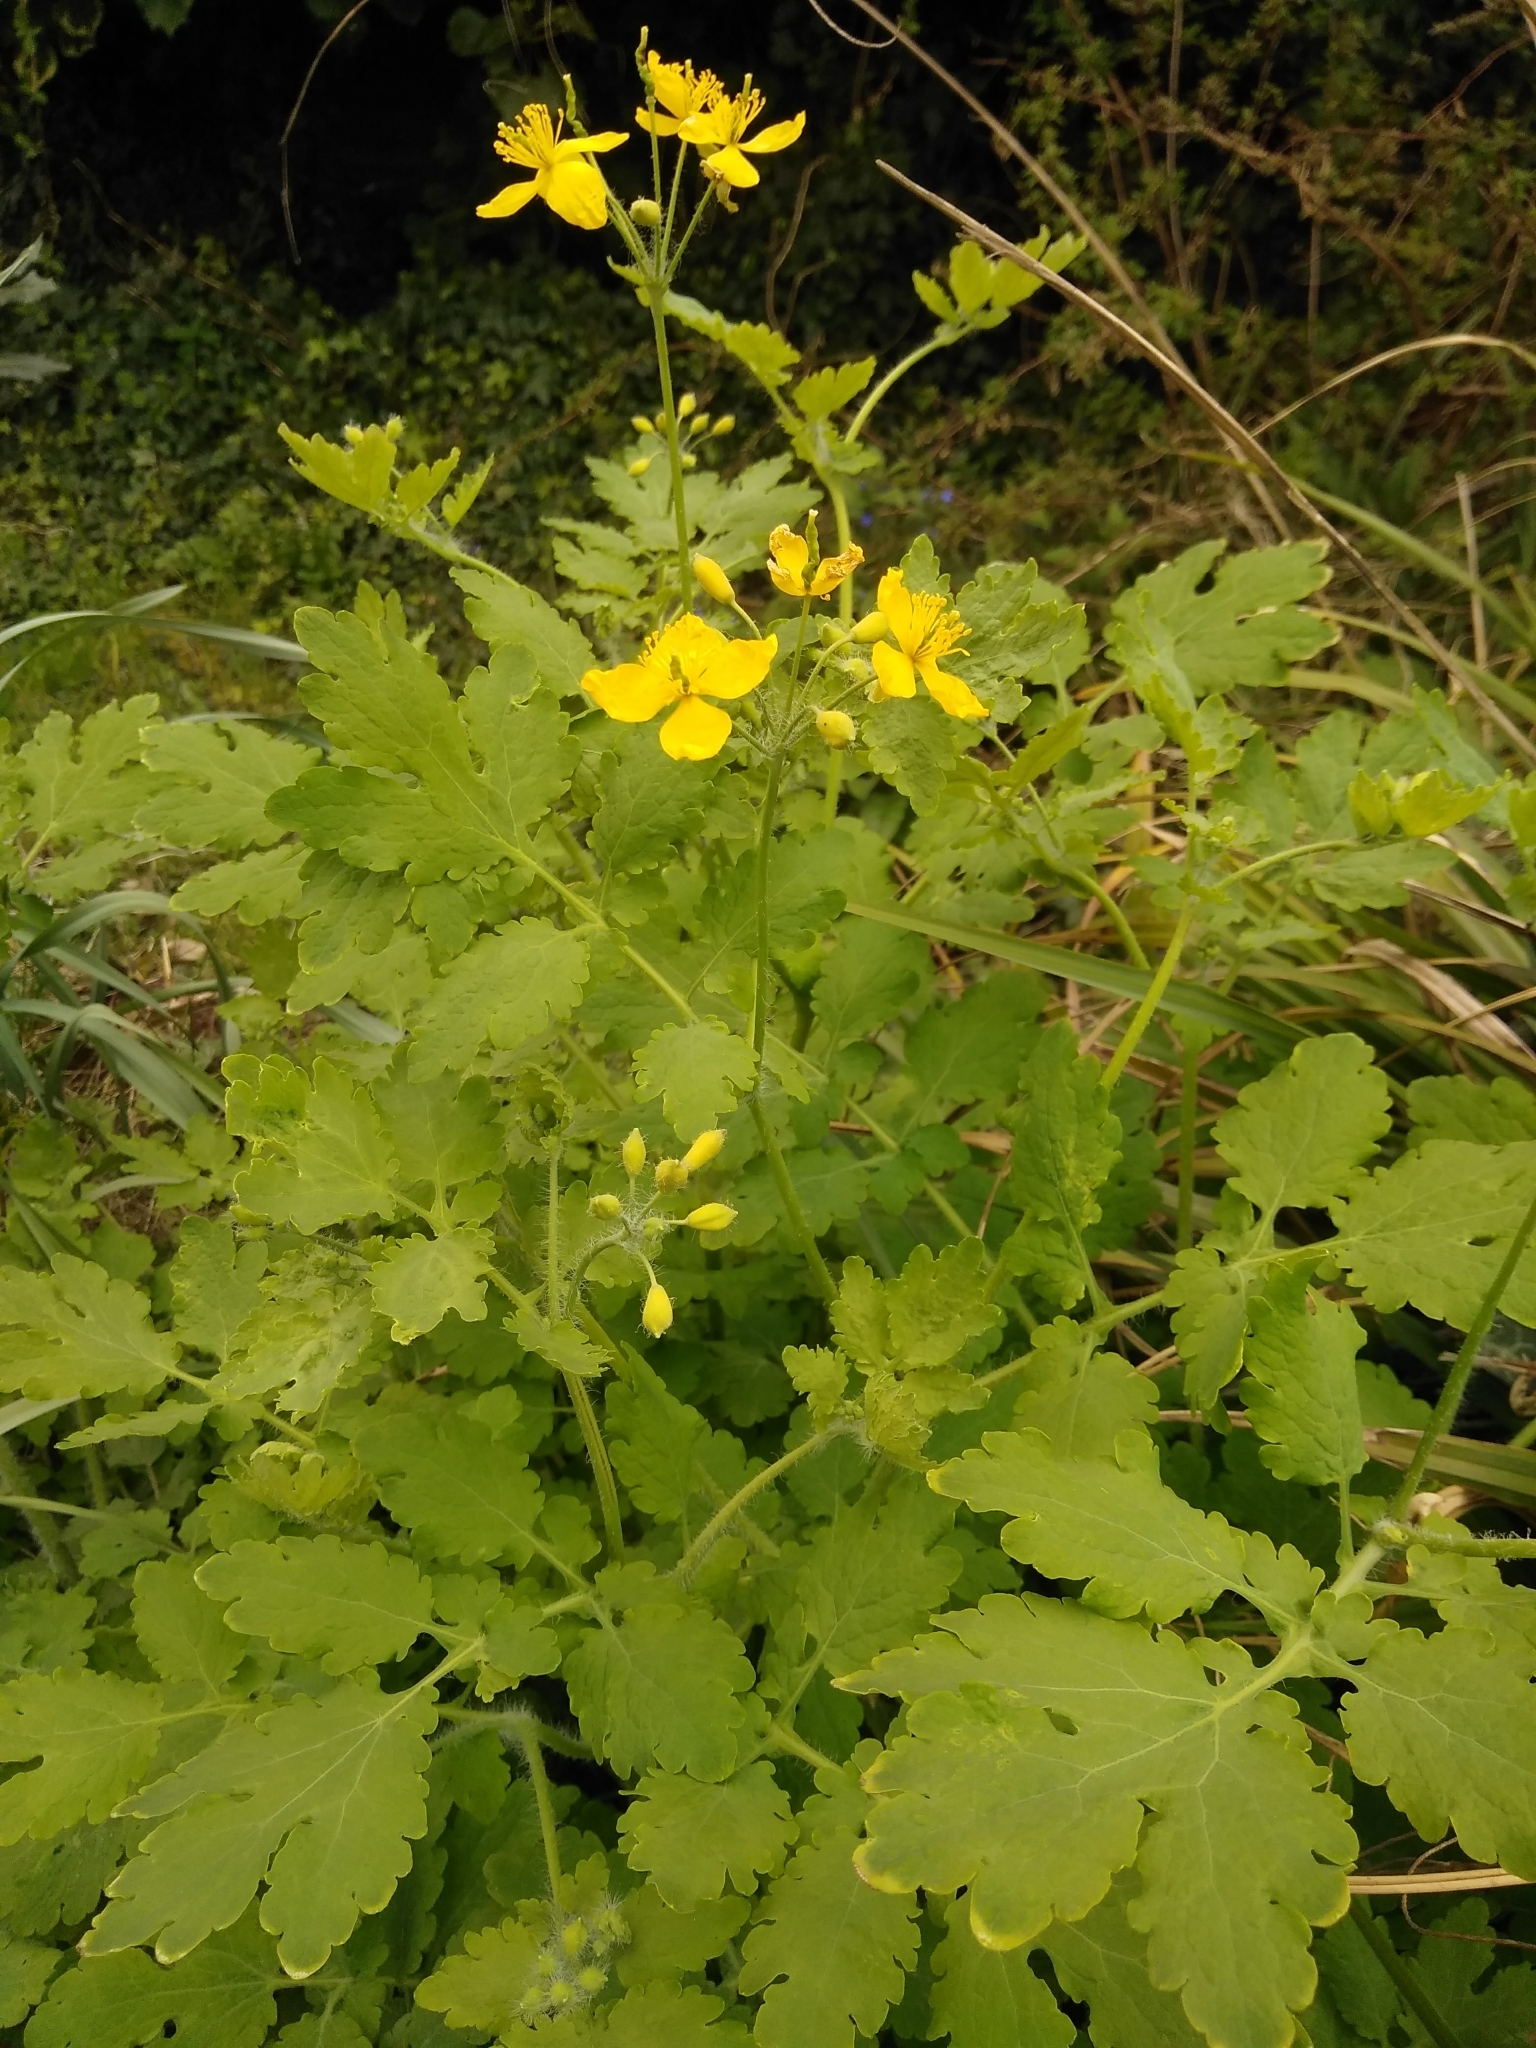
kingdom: Plantae
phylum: Tracheophyta
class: Magnoliopsida
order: Ranunculales
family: Papaveraceae
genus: Chelidonium
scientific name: Chelidonium majus
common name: Greater celandine
